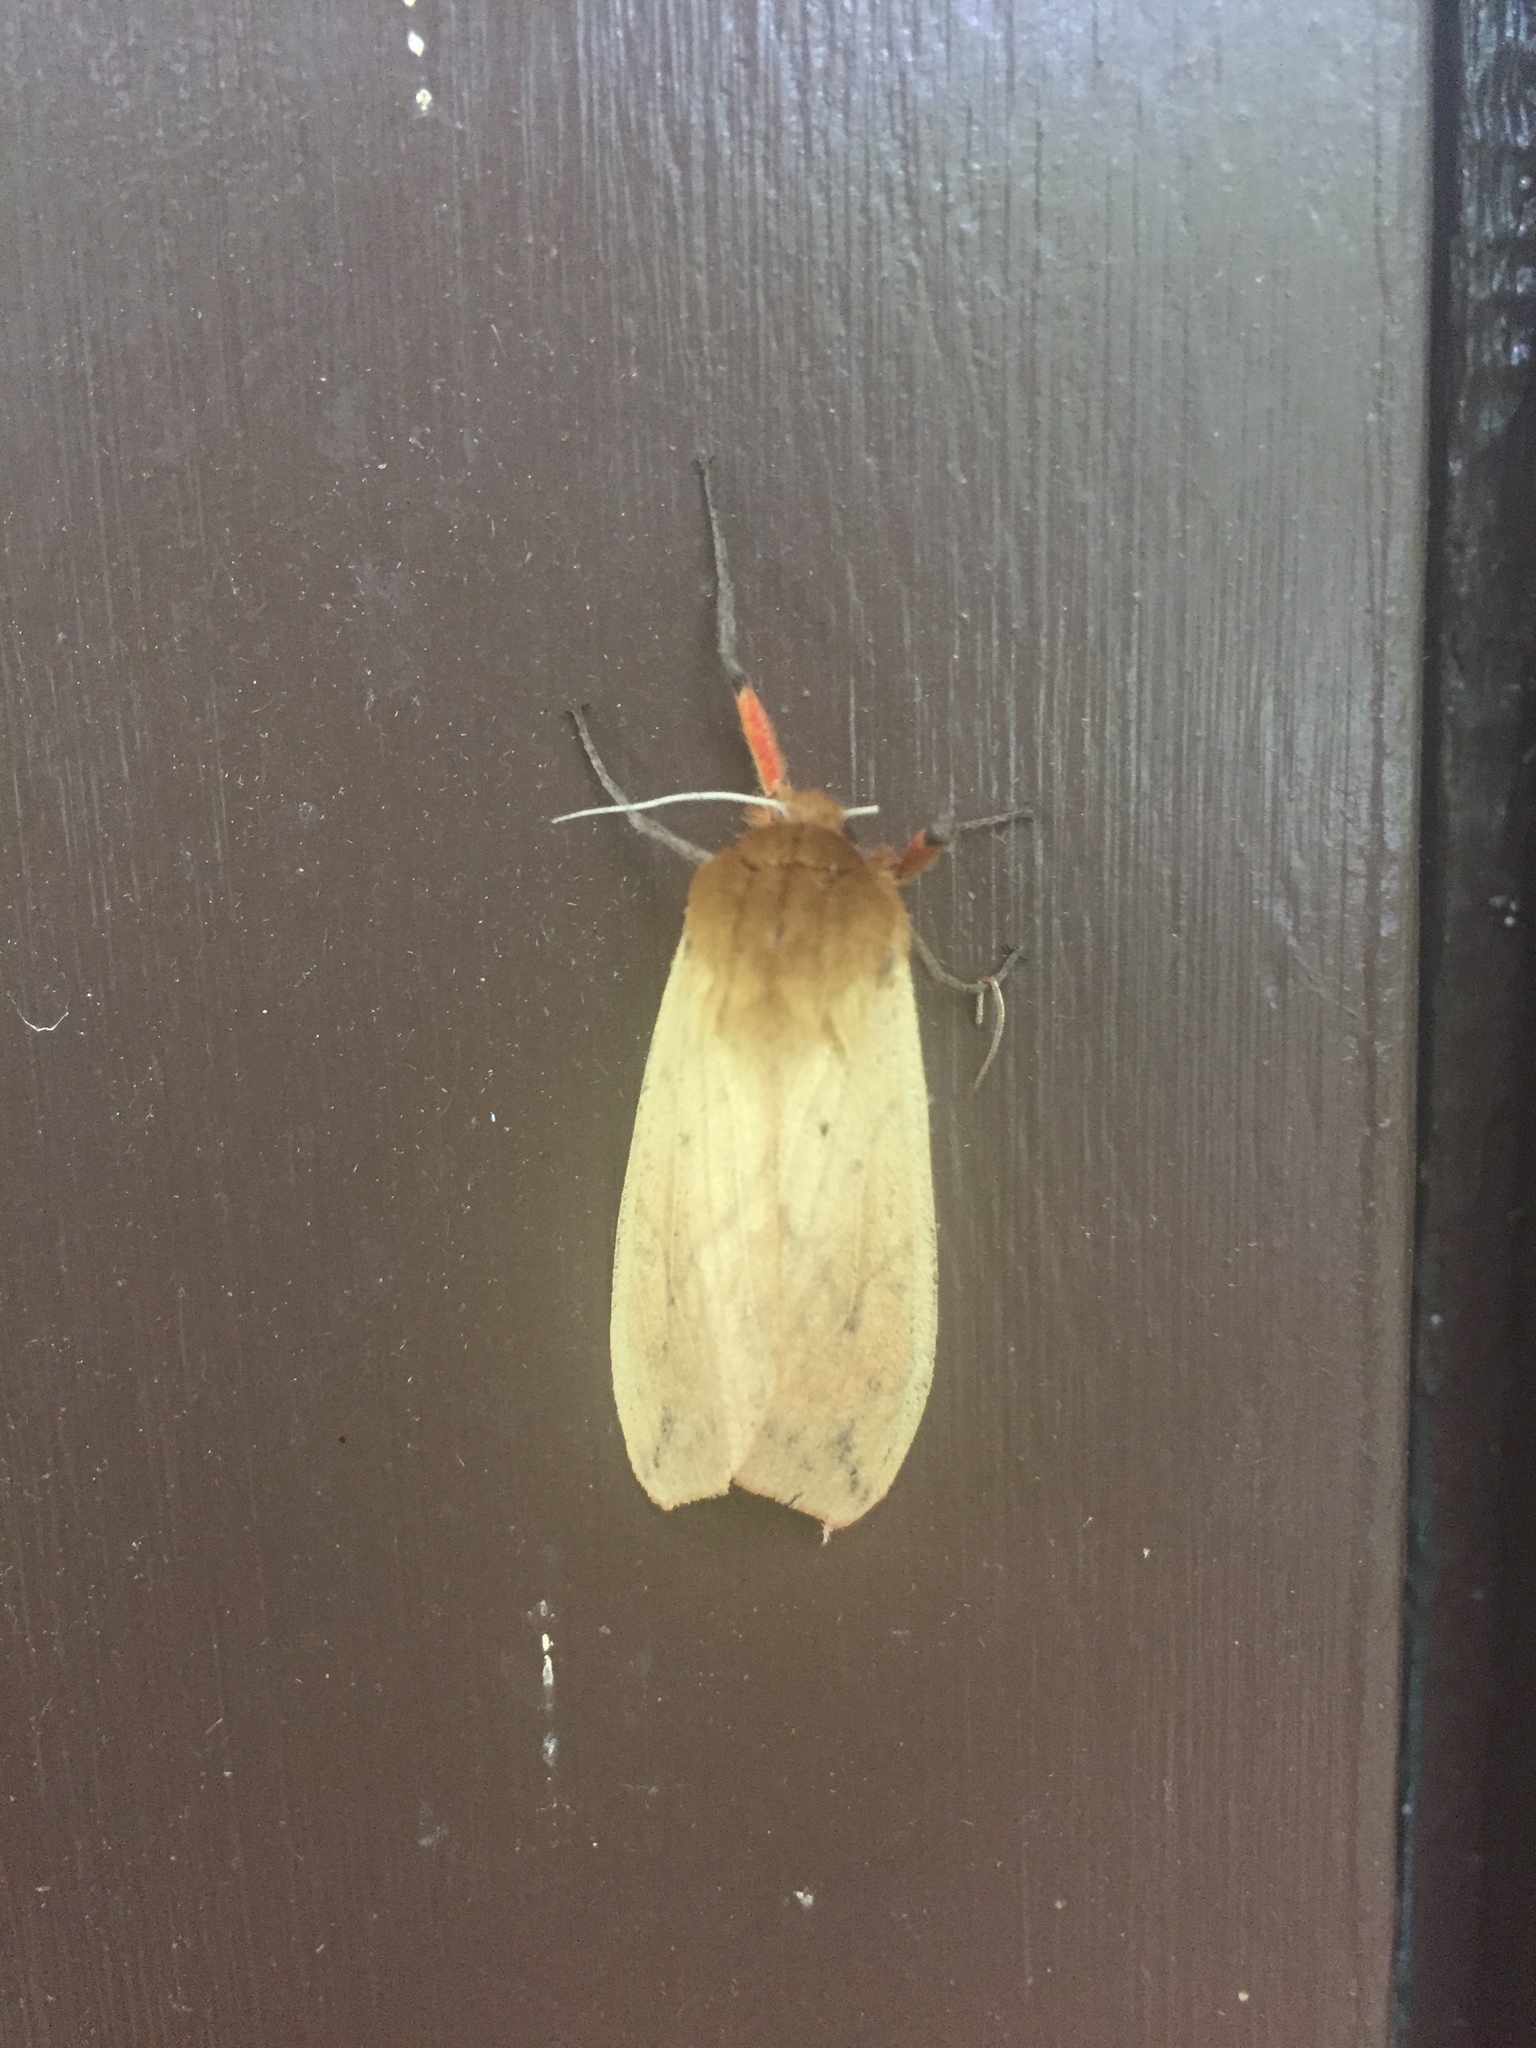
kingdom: Animalia
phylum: Arthropoda
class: Insecta
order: Lepidoptera
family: Erebidae
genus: Pyrrharctia
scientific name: Pyrrharctia isabella
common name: Isabella tiger moth
